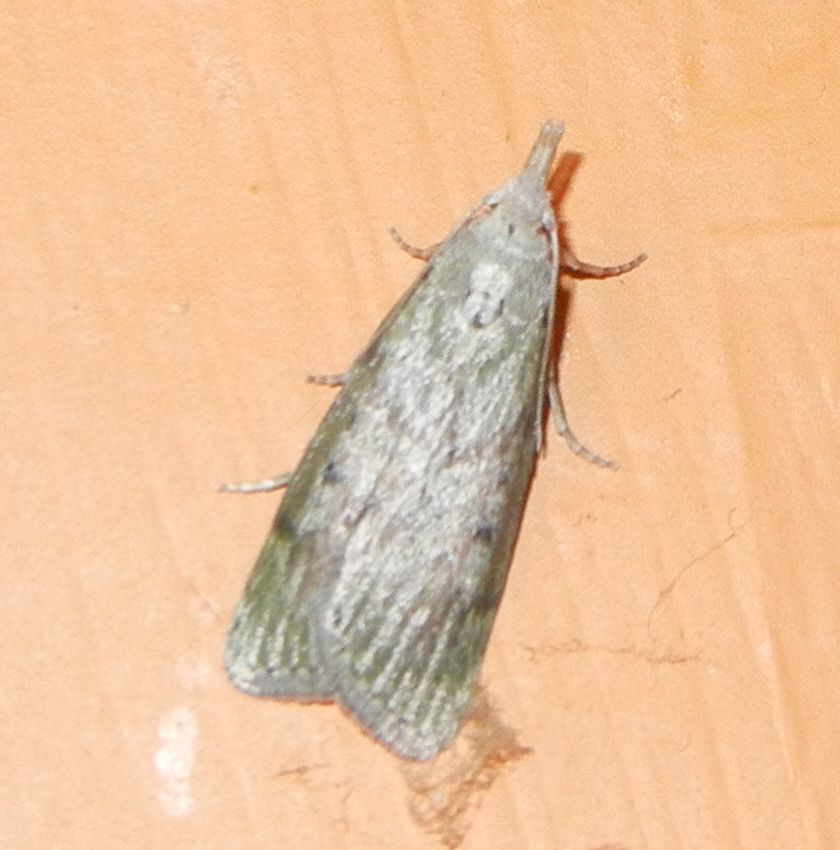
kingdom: Animalia
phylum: Arthropoda
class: Insecta
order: Lepidoptera
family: Pyralidae
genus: Aphomia
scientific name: Aphomia sociella
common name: Bee moth
